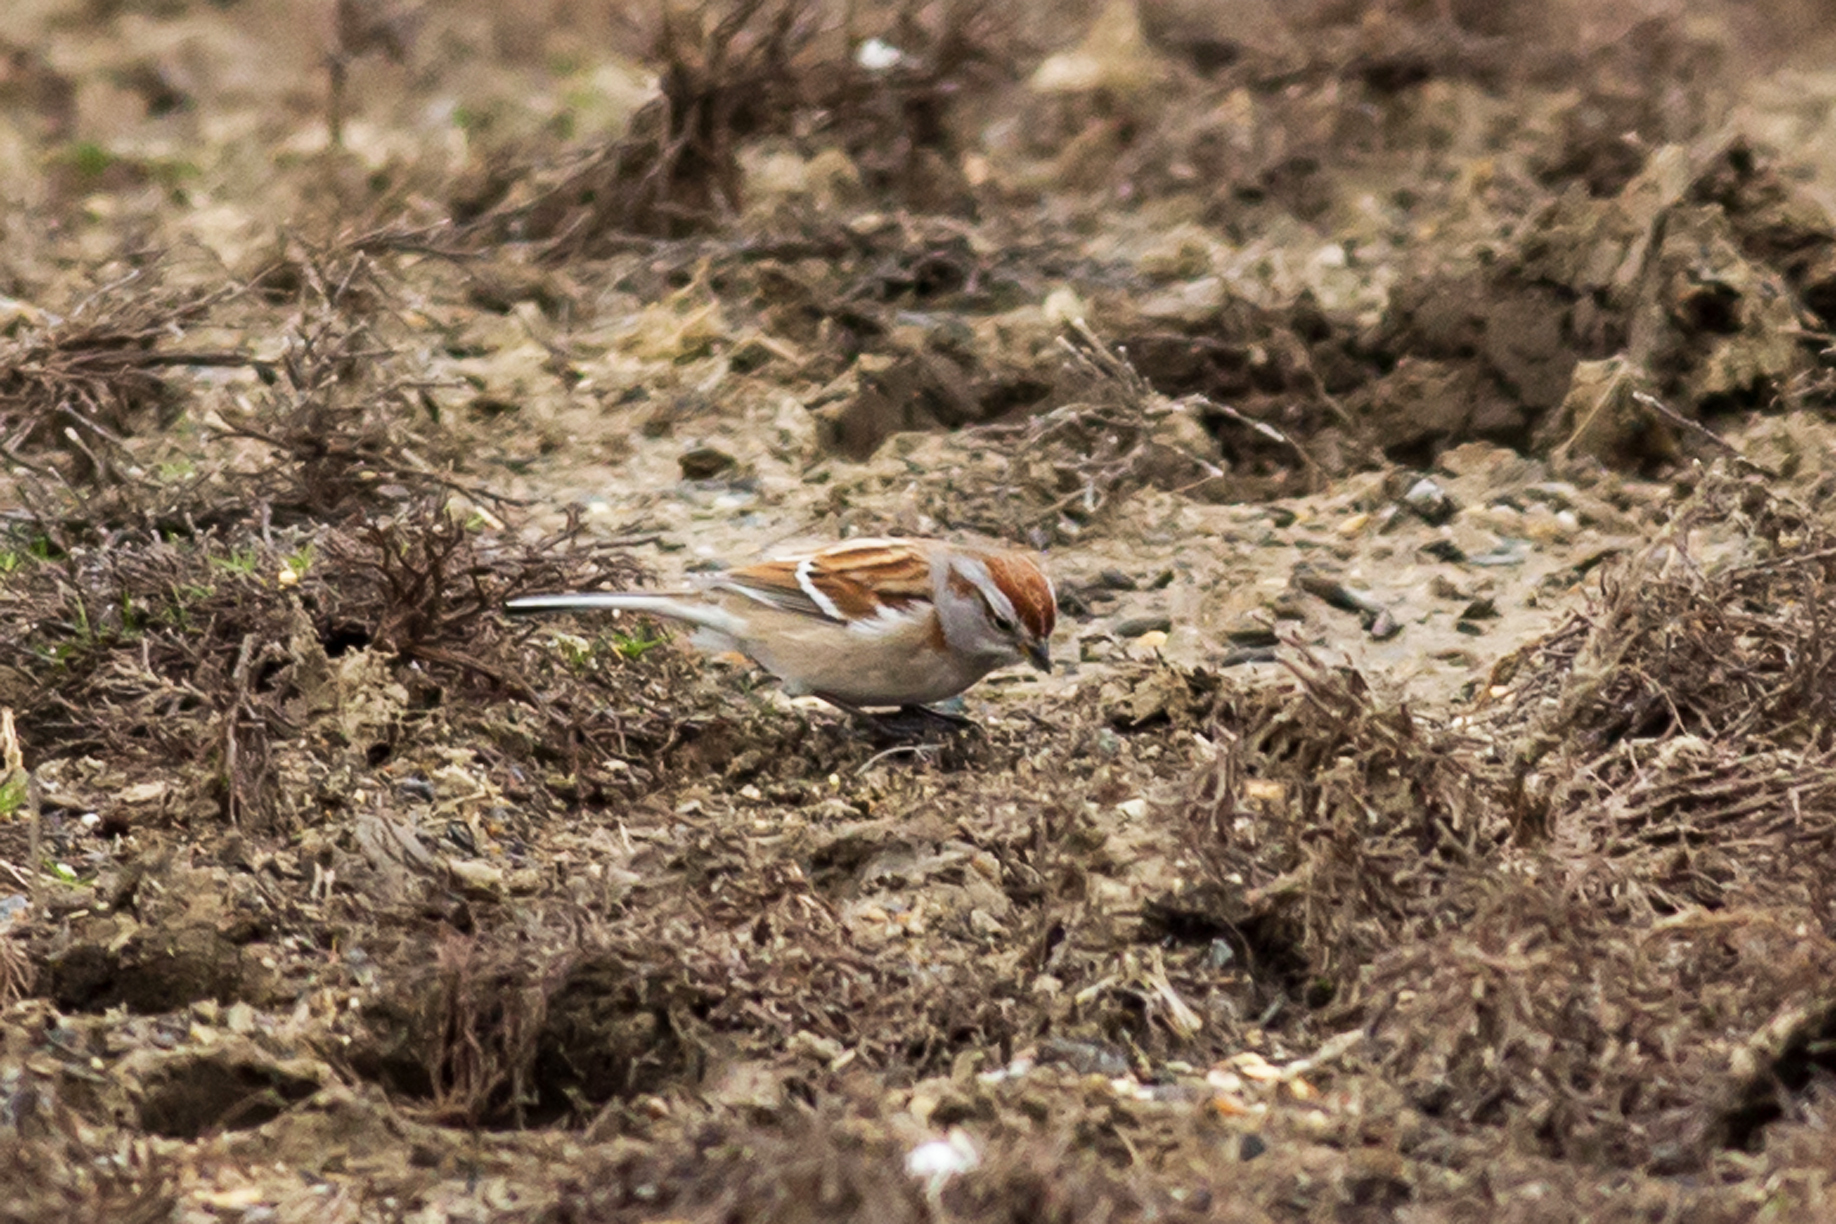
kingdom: Animalia
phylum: Chordata
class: Aves
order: Passeriformes
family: Passerellidae
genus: Spizelloides
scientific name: Spizelloides arborea
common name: American tree sparrow
